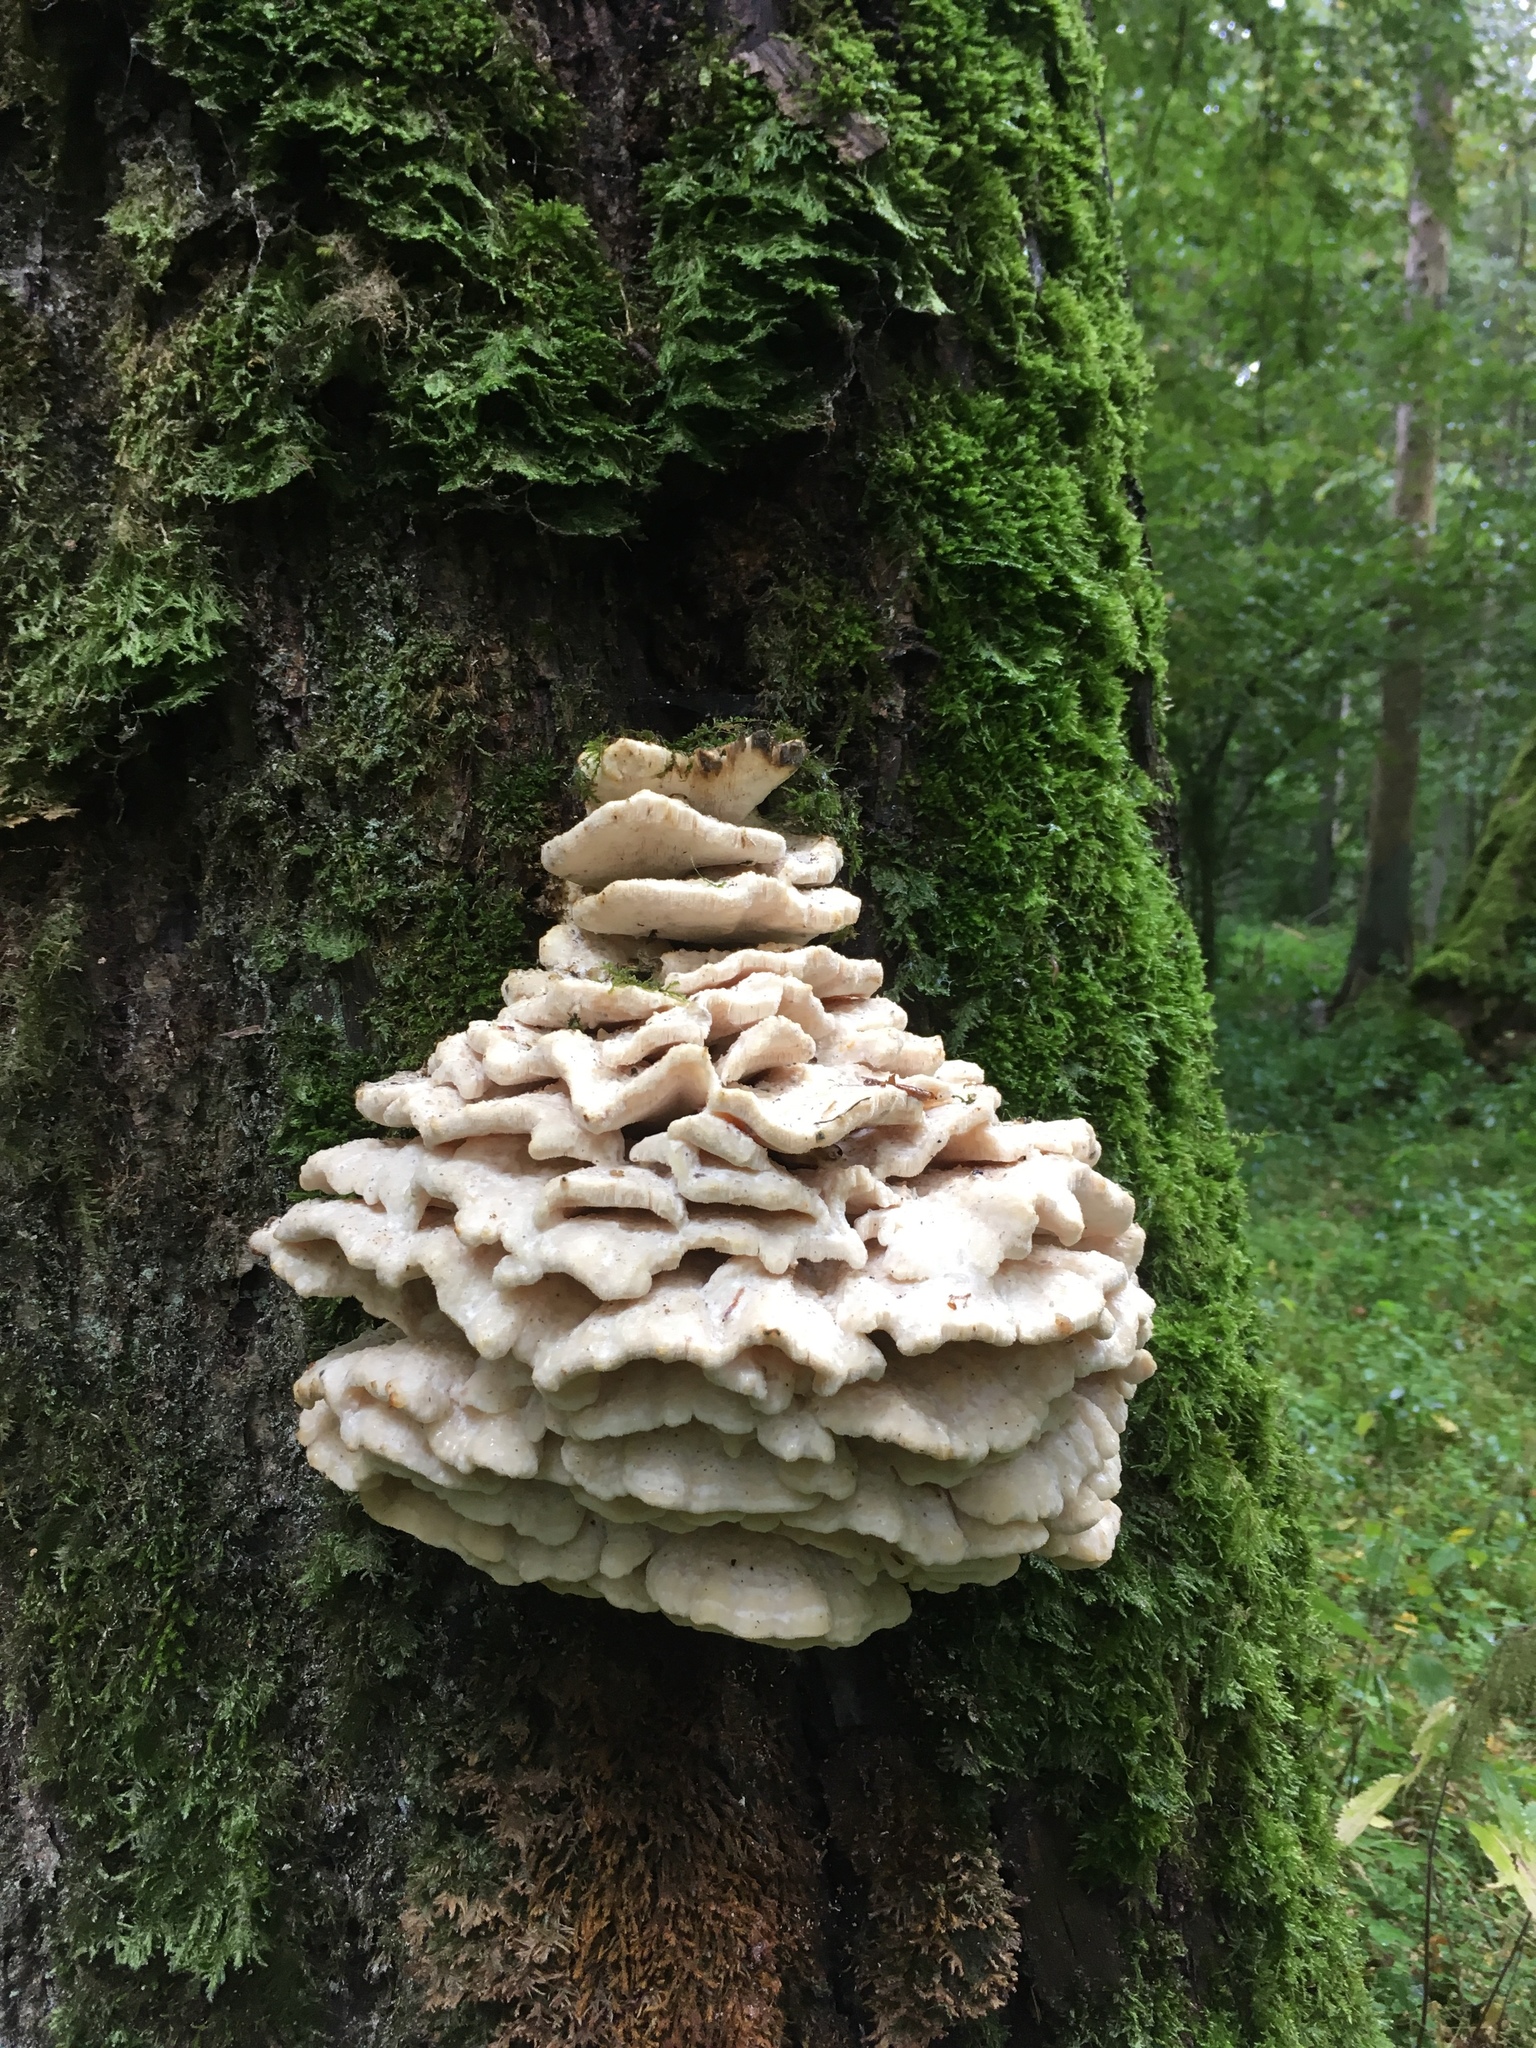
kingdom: Fungi
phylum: Basidiomycota
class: Agaricomycetes
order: Polyporales
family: Meruliaceae
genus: Climacodon
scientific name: Climacodon septentrionalis
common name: Northern tooth
